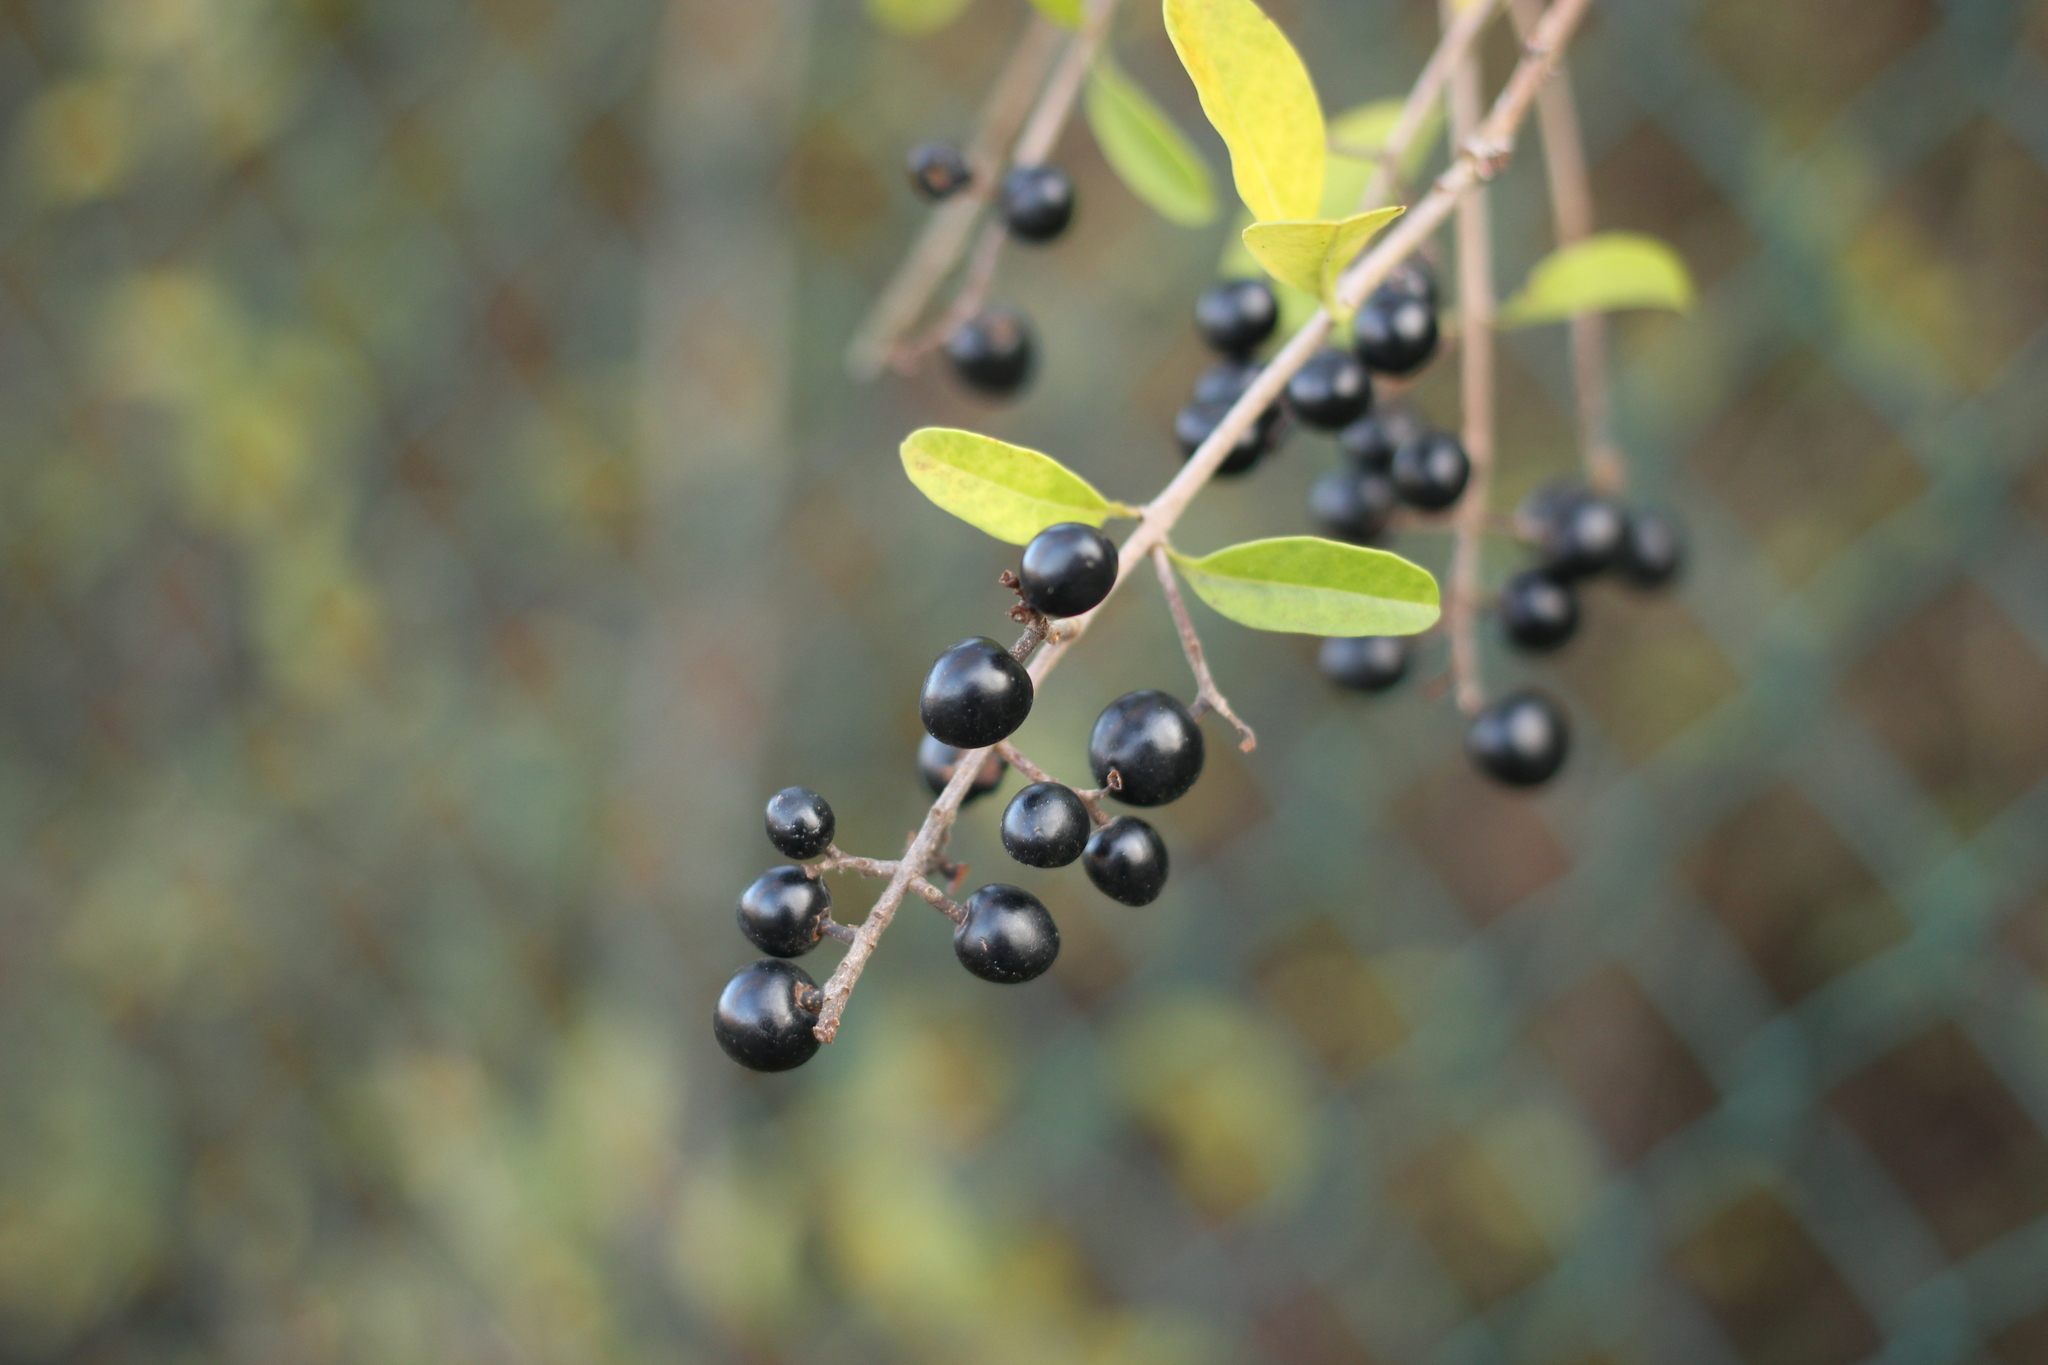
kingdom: Plantae
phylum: Tracheophyta
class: Magnoliopsida
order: Lamiales
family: Oleaceae
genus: Ligustrum
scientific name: Ligustrum vulgare
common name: Wild privet
